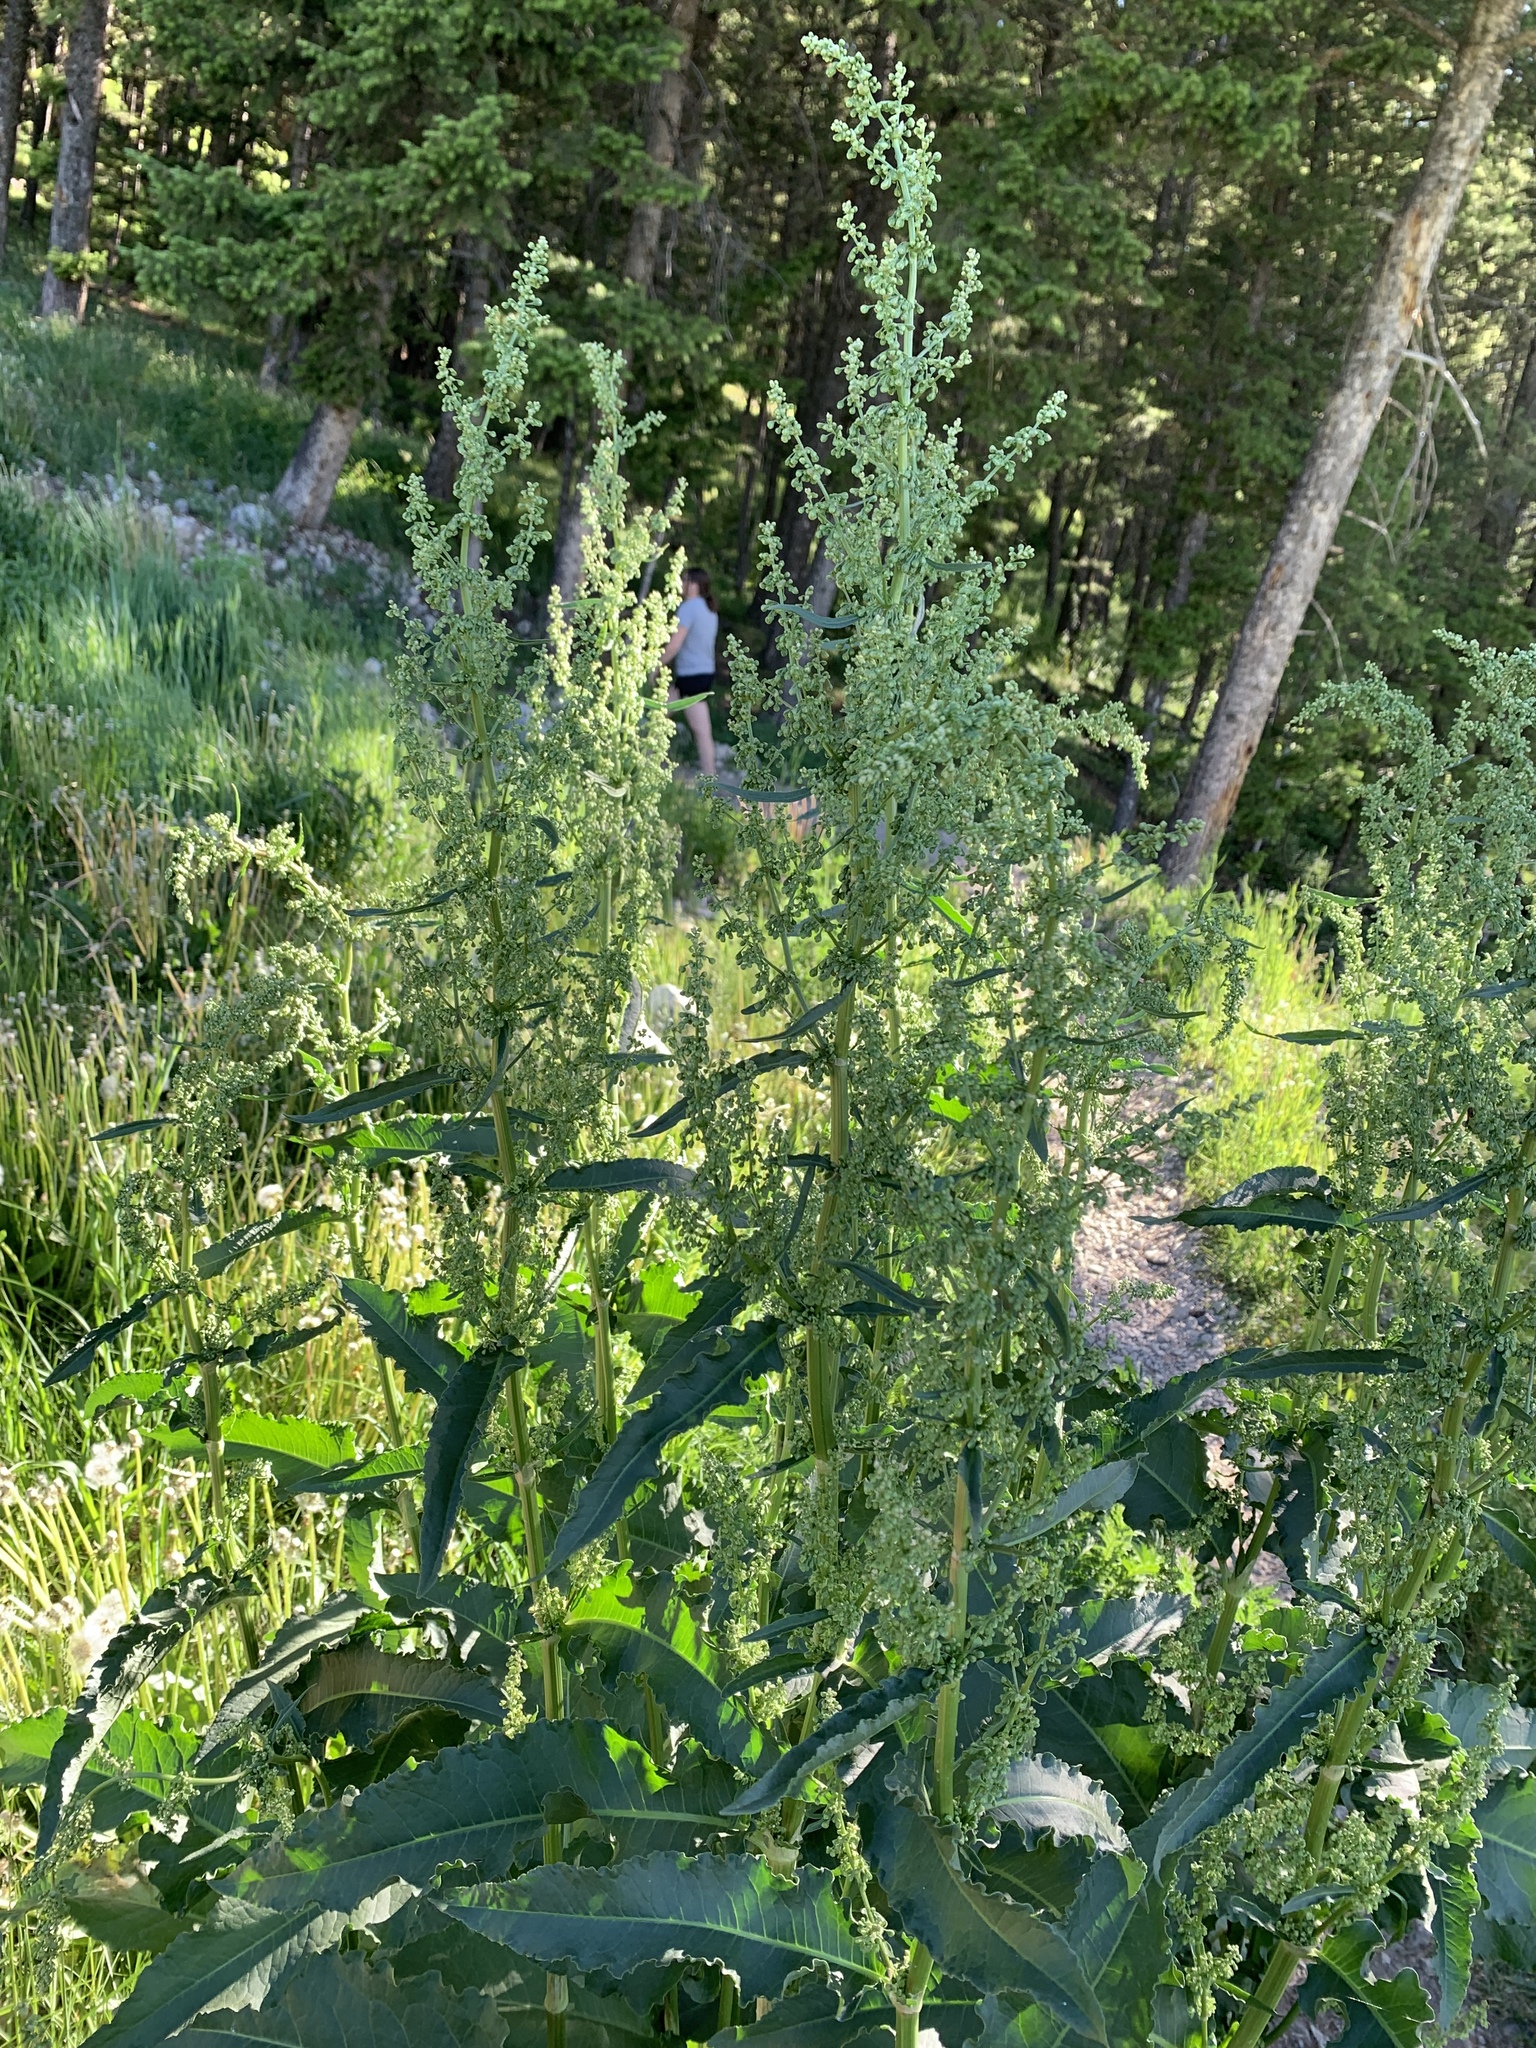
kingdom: Plantae
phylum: Tracheophyta
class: Magnoliopsida
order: Caryophyllales
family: Polygonaceae
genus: Rumex
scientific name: Rumex crispus
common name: Curled dock
